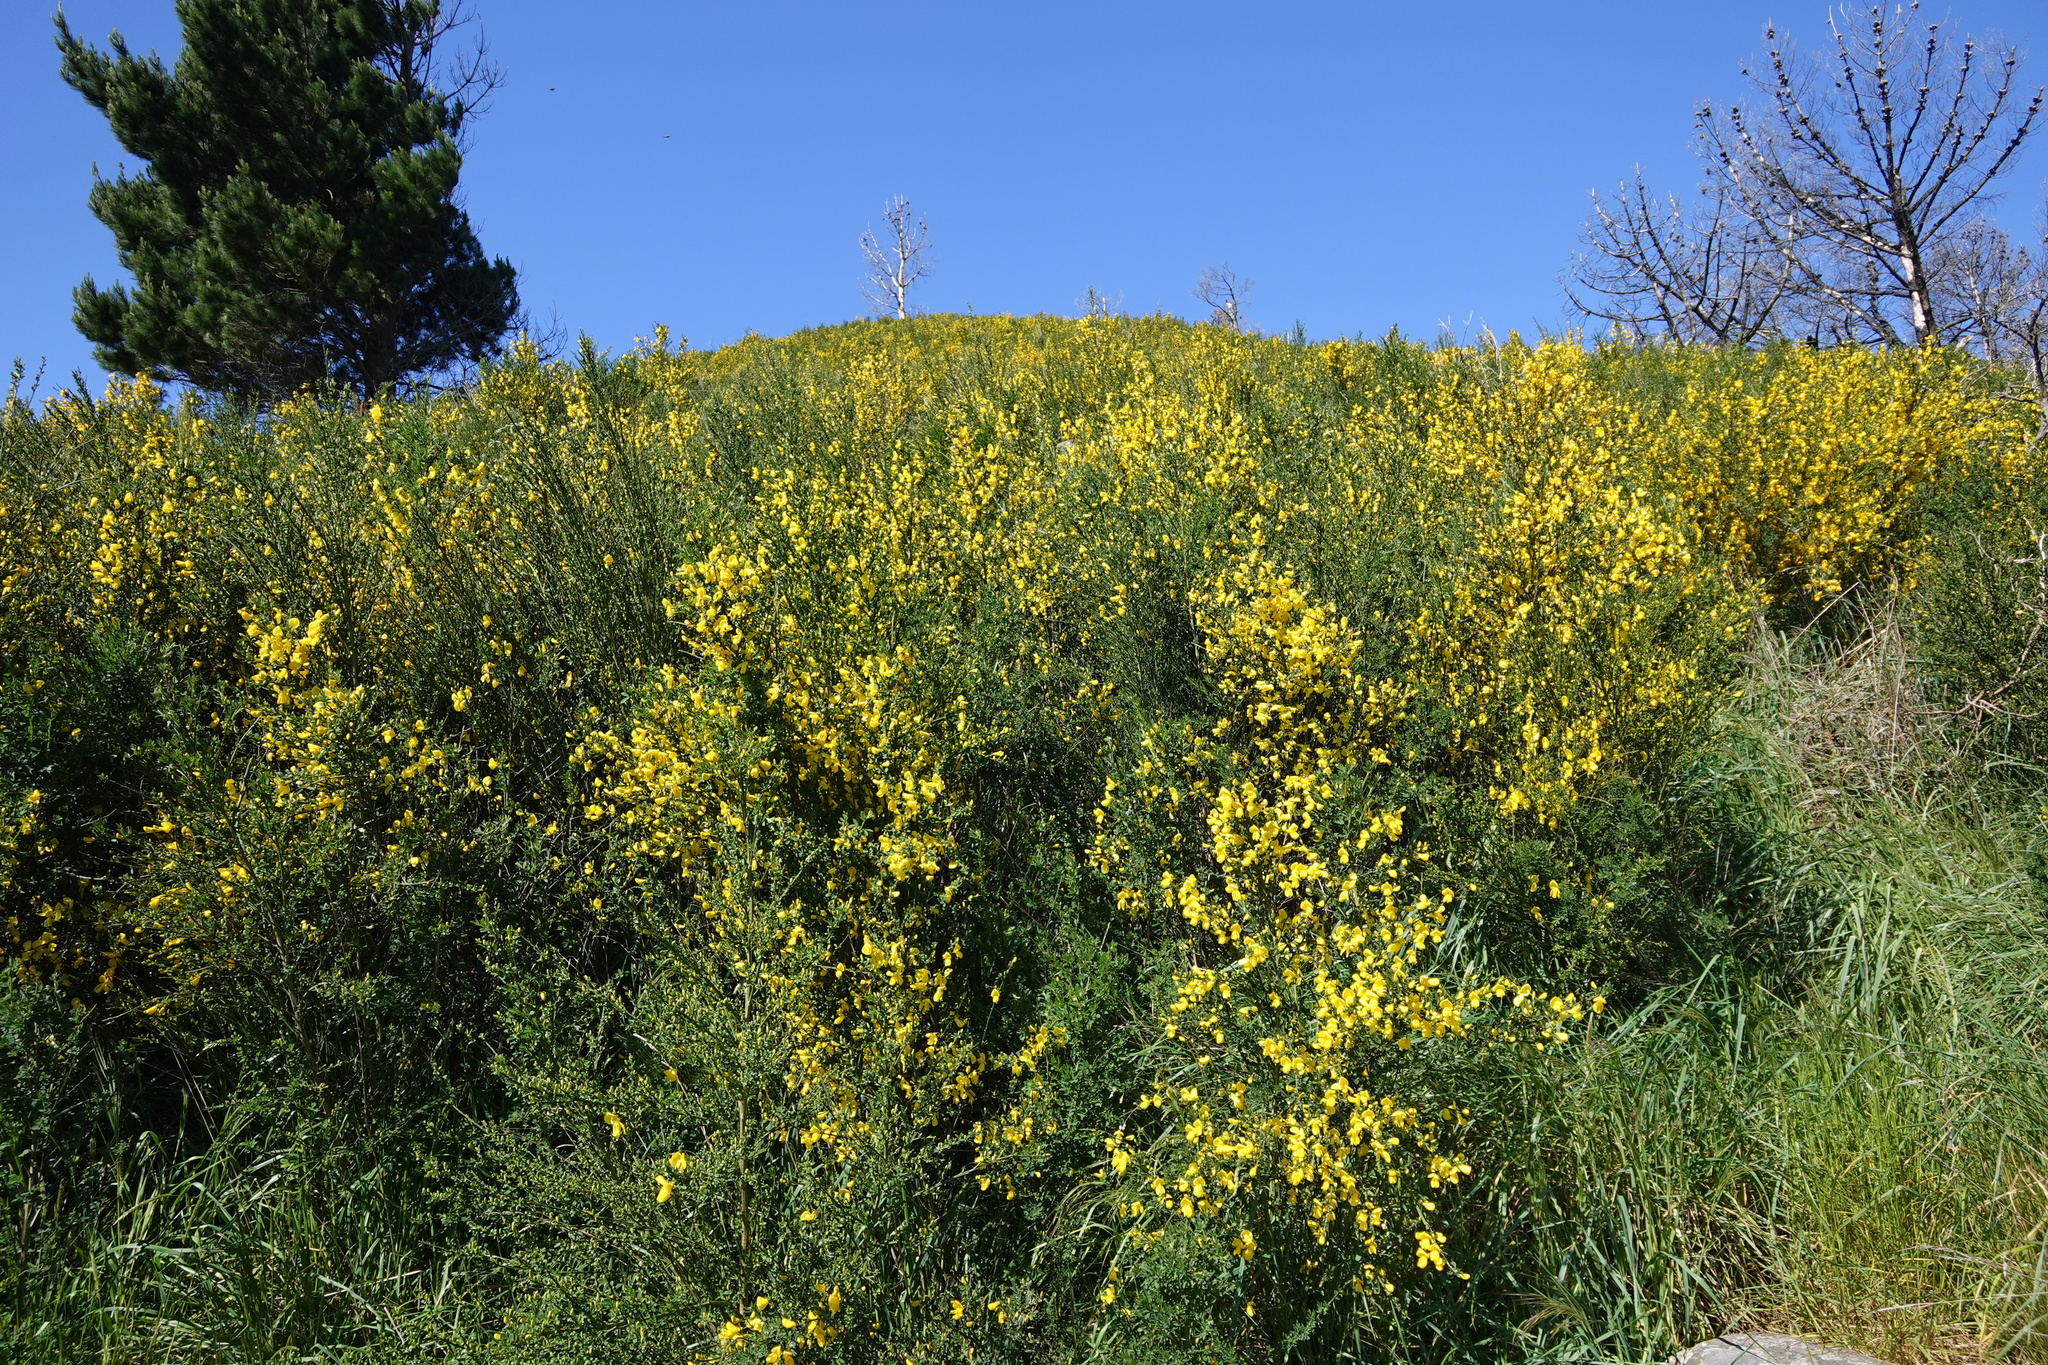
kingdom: Plantae
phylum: Tracheophyta
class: Magnoliopsida
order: Fabales
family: Fabaceae
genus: Cytisus
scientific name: Cytisus scoparius
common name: Scotch broom
